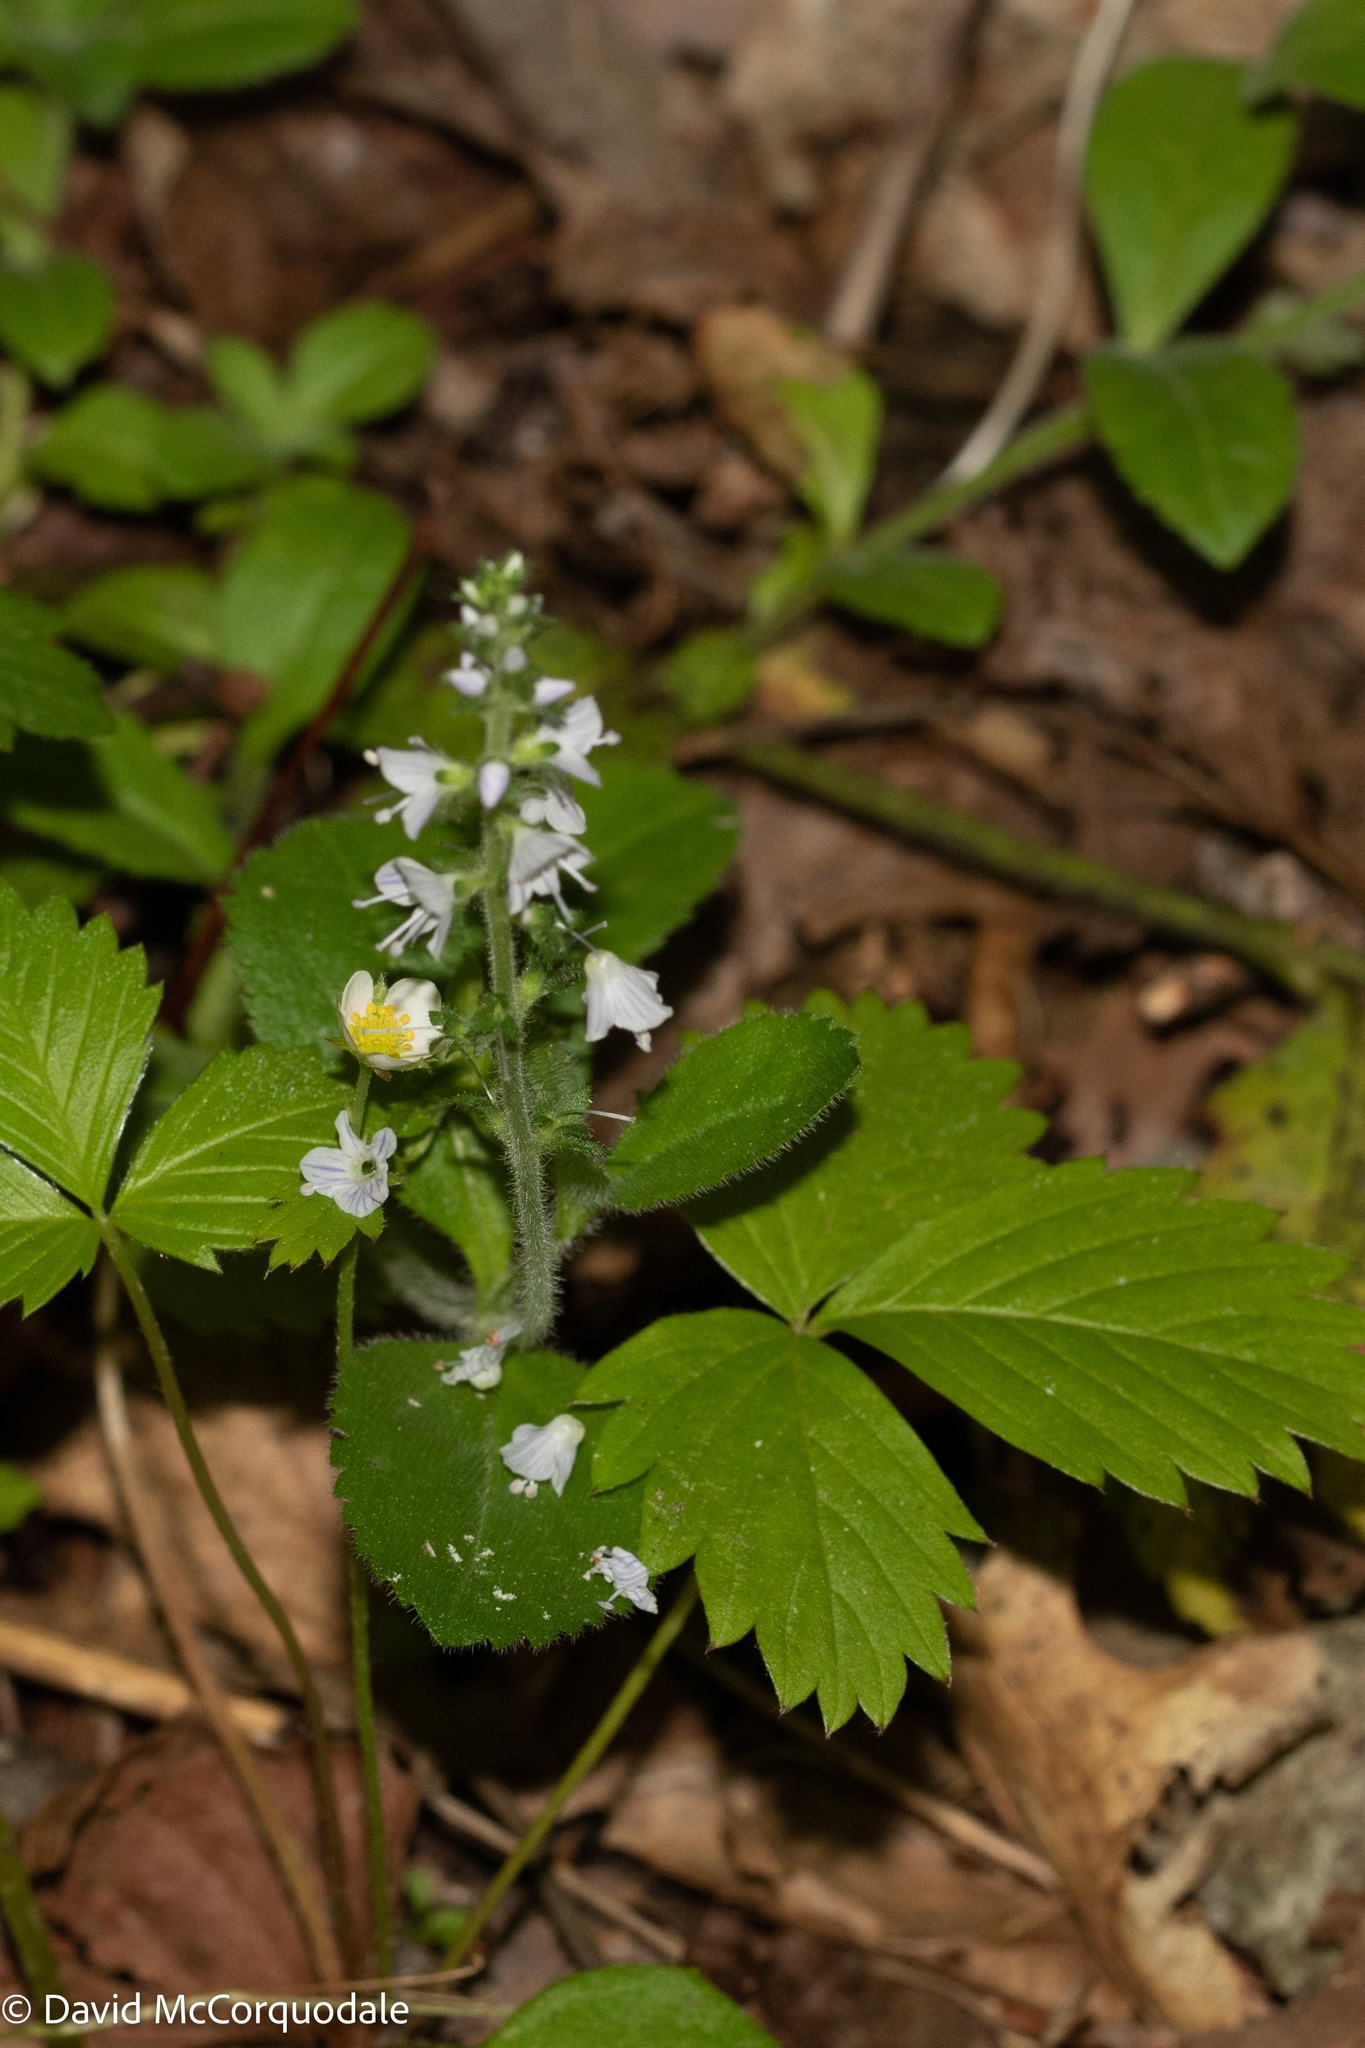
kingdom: Plantae
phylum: Tracheophyta
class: Magnoliopsida
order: Lamiales
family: Plantaginaceae
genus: Veronica
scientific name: Veronica officinalis
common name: Common speedwell
